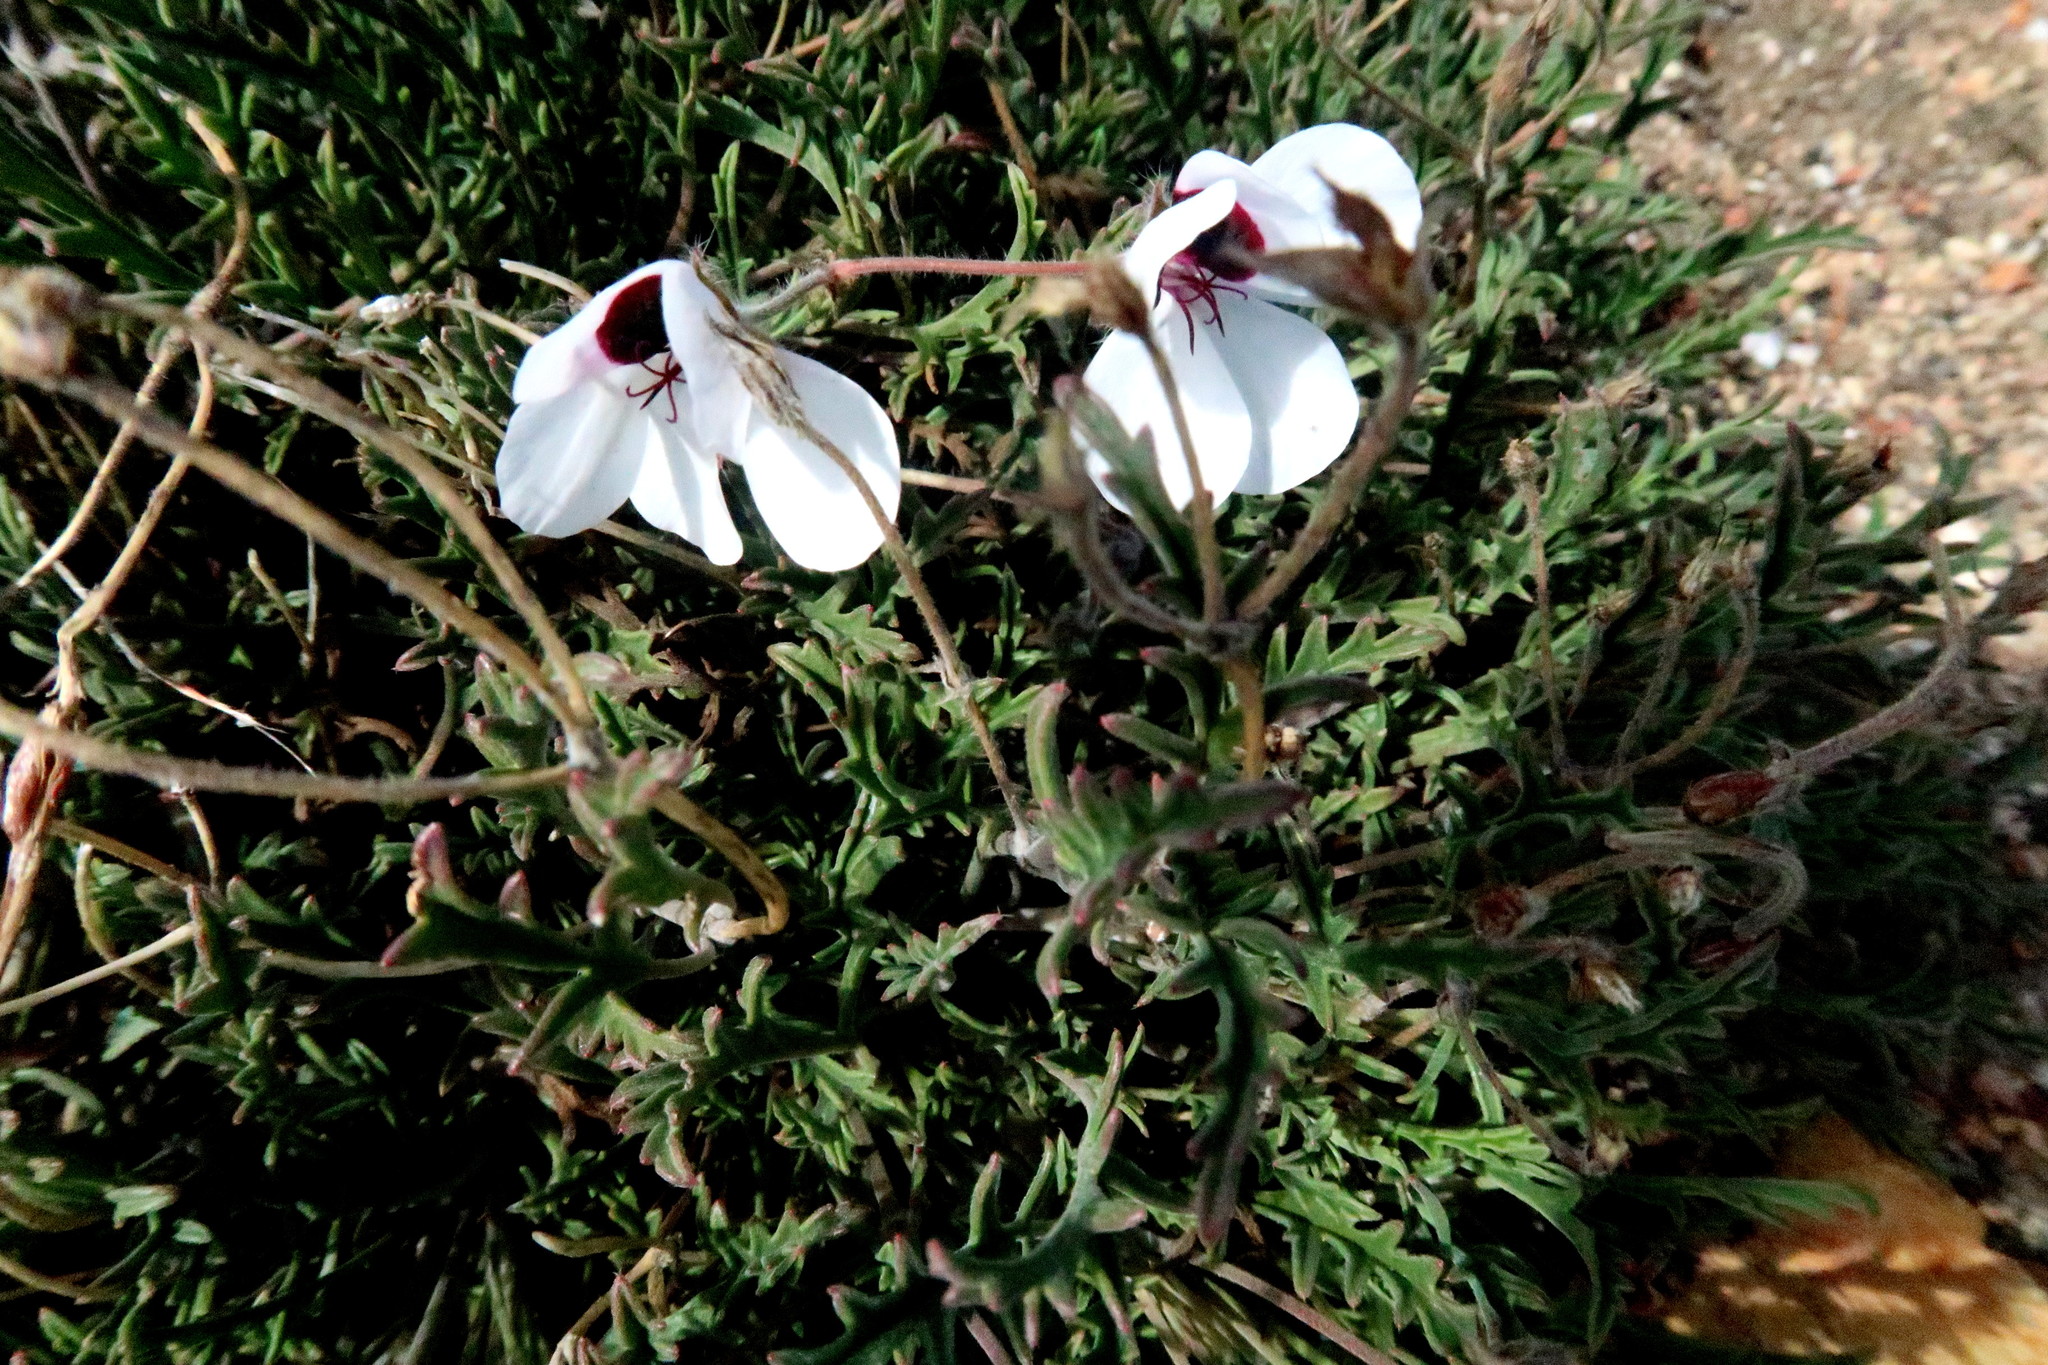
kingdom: Plantae
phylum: Tracheophyta
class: Magnoliopsida
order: Geraniales
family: Geraniaceae
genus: Pelargonium
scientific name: Pelargonium tricolor
